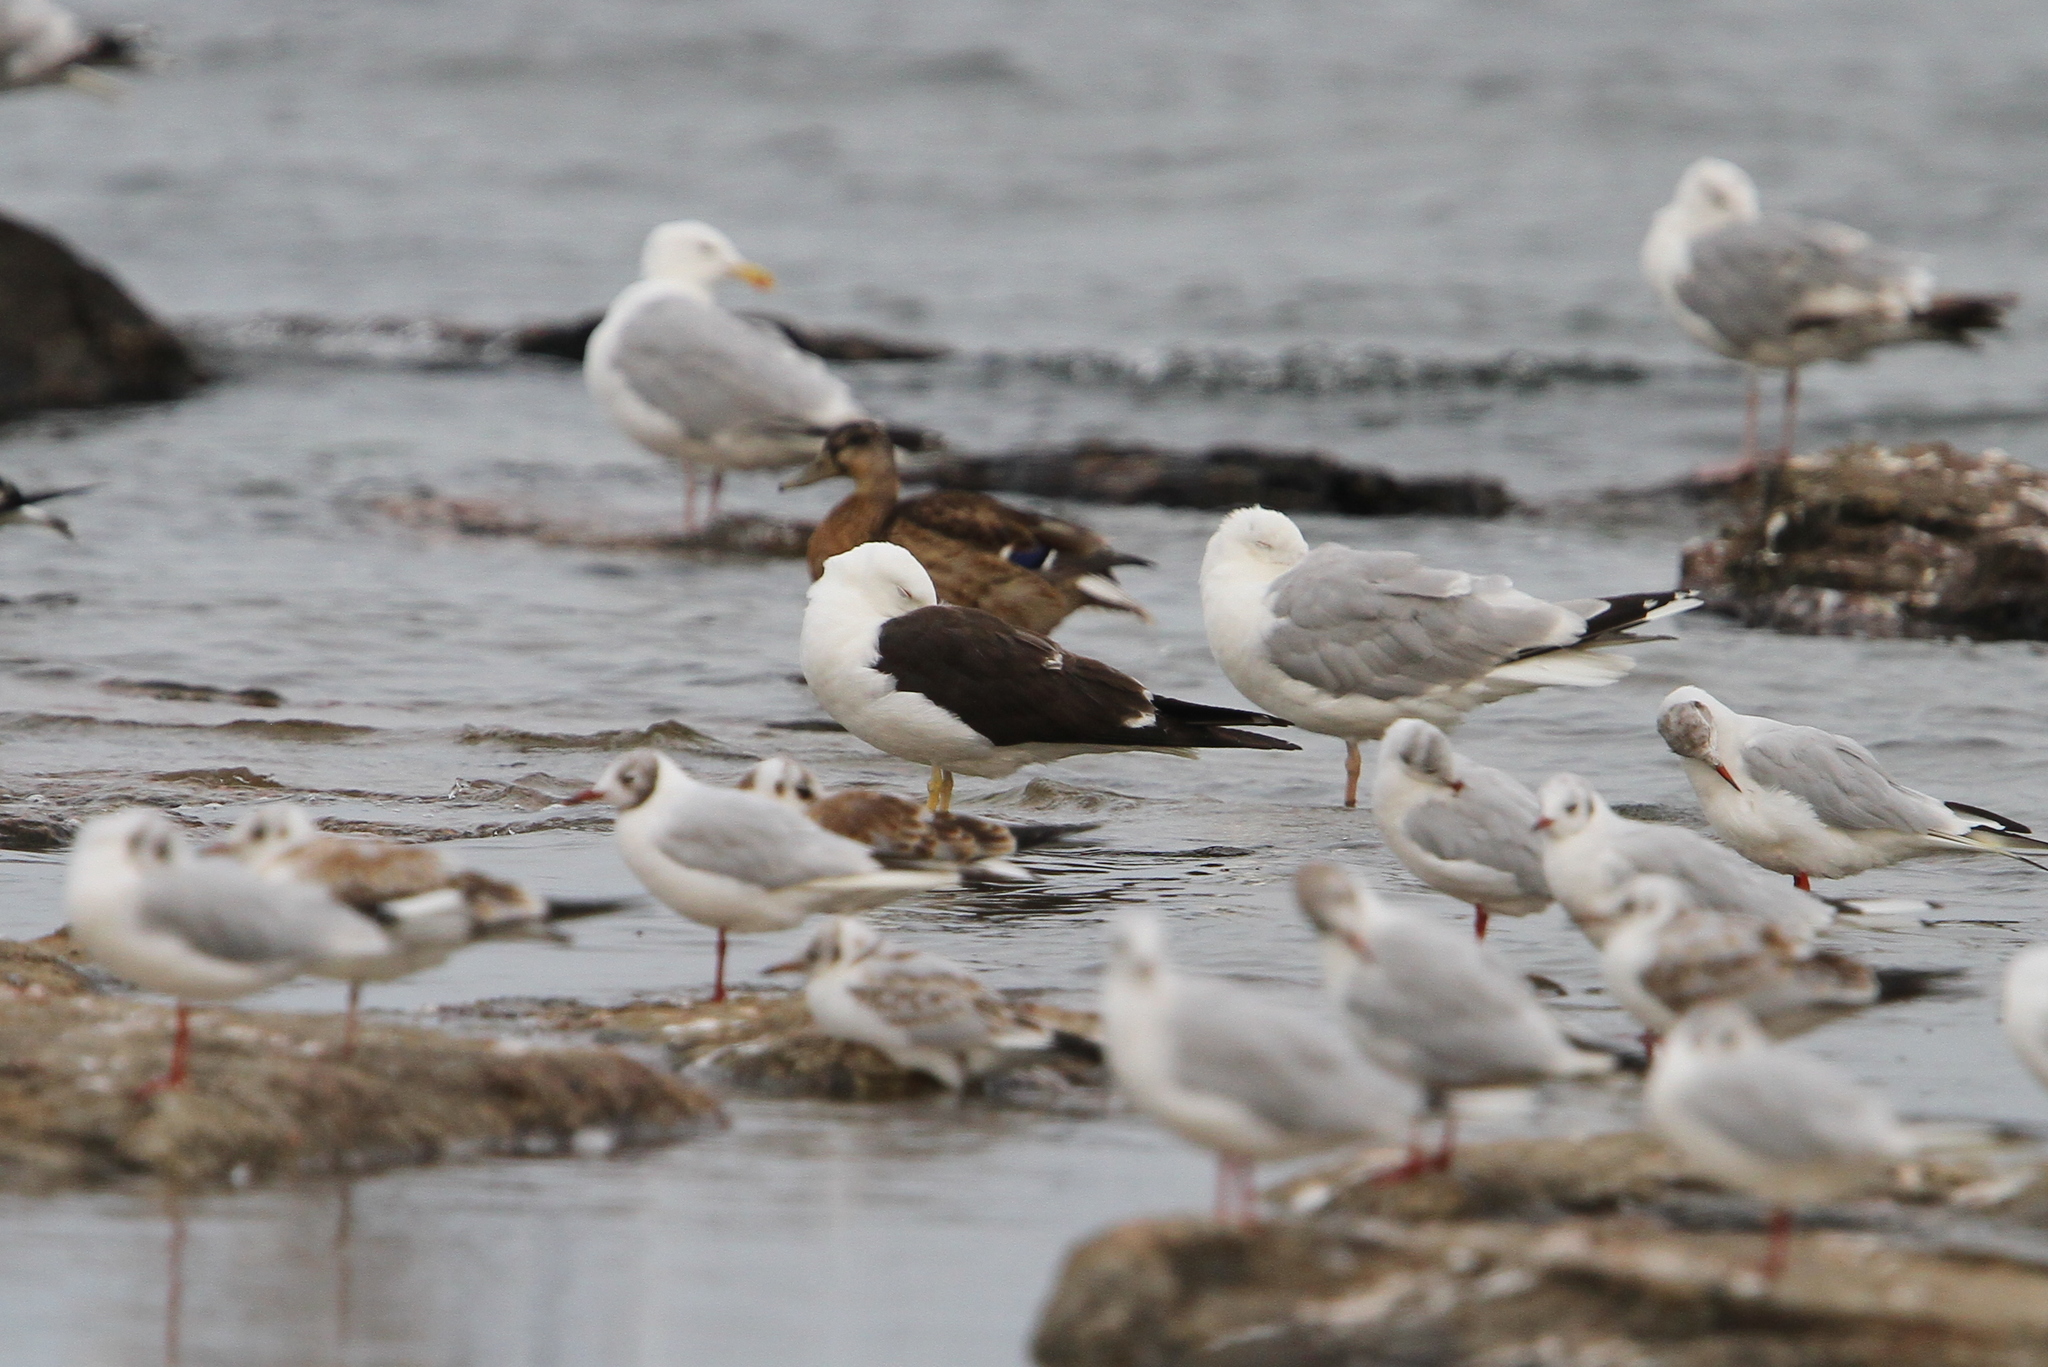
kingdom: Animalia
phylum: Chordata
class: Aves
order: Charadriiformes
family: Laridae
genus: Larus
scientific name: Larus fuscus
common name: Lesser black-backed gull
